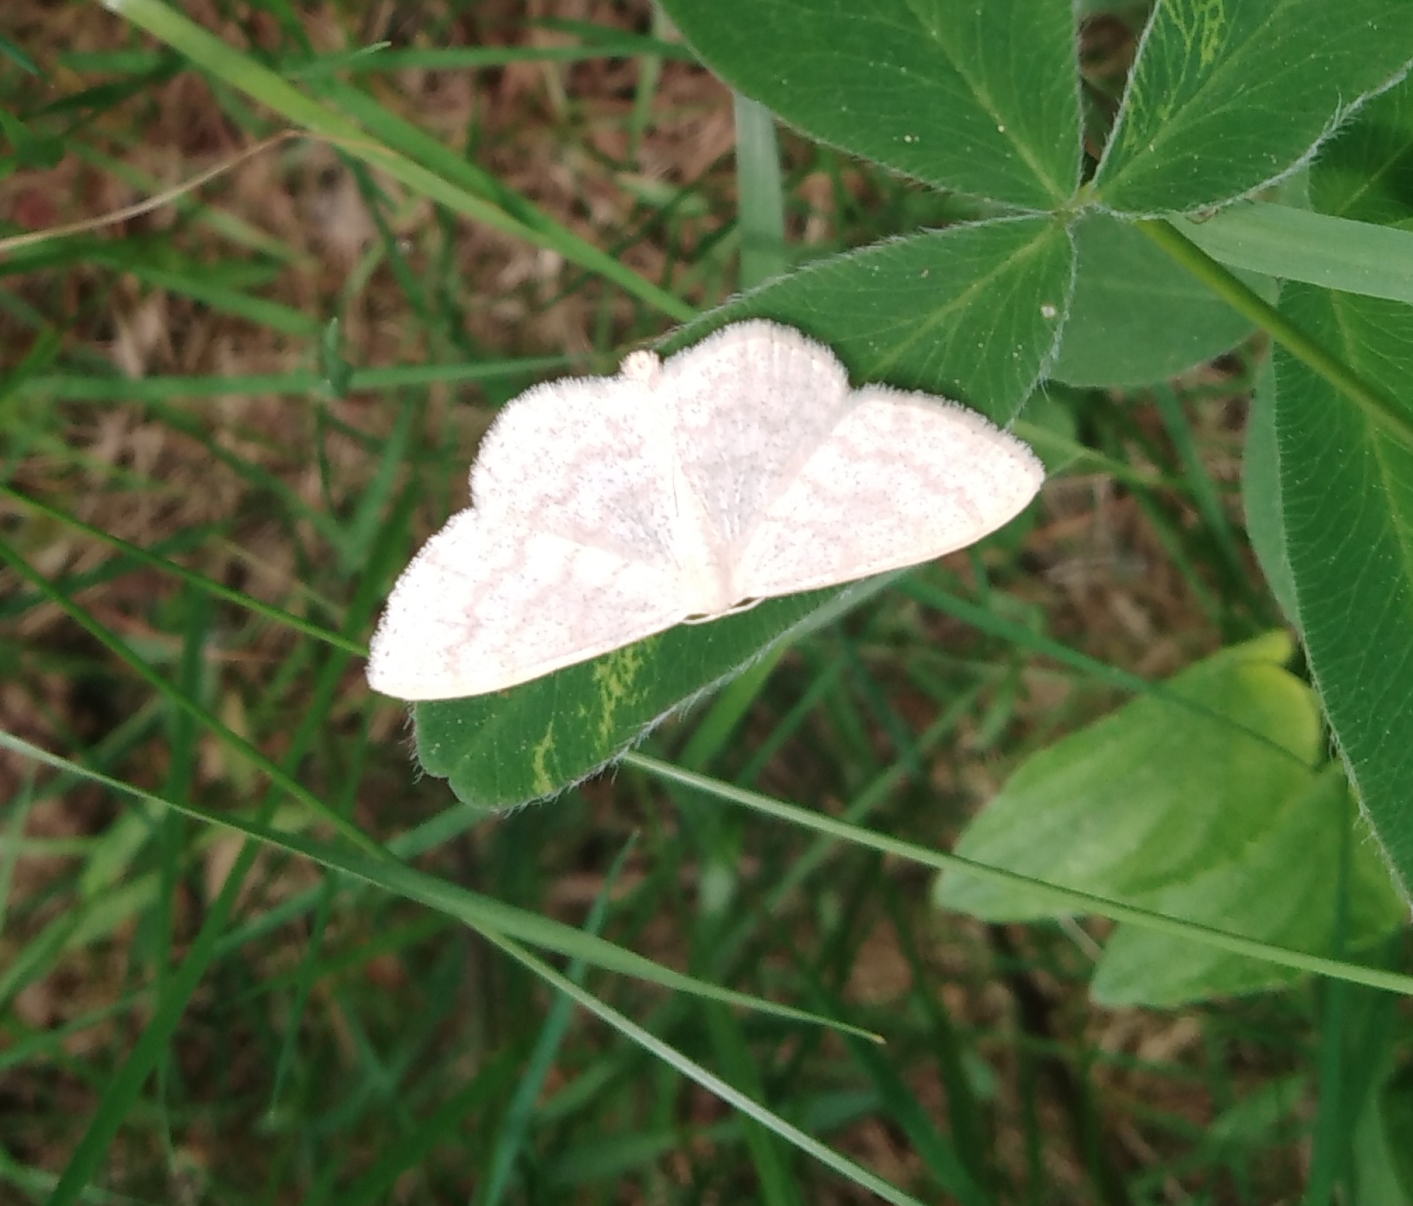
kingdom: Animalia
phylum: Arthropoda
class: Insecta
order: Lepidoptera
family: Geometridae
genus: Scopula
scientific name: Scopula floslactata
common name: Cream wave
